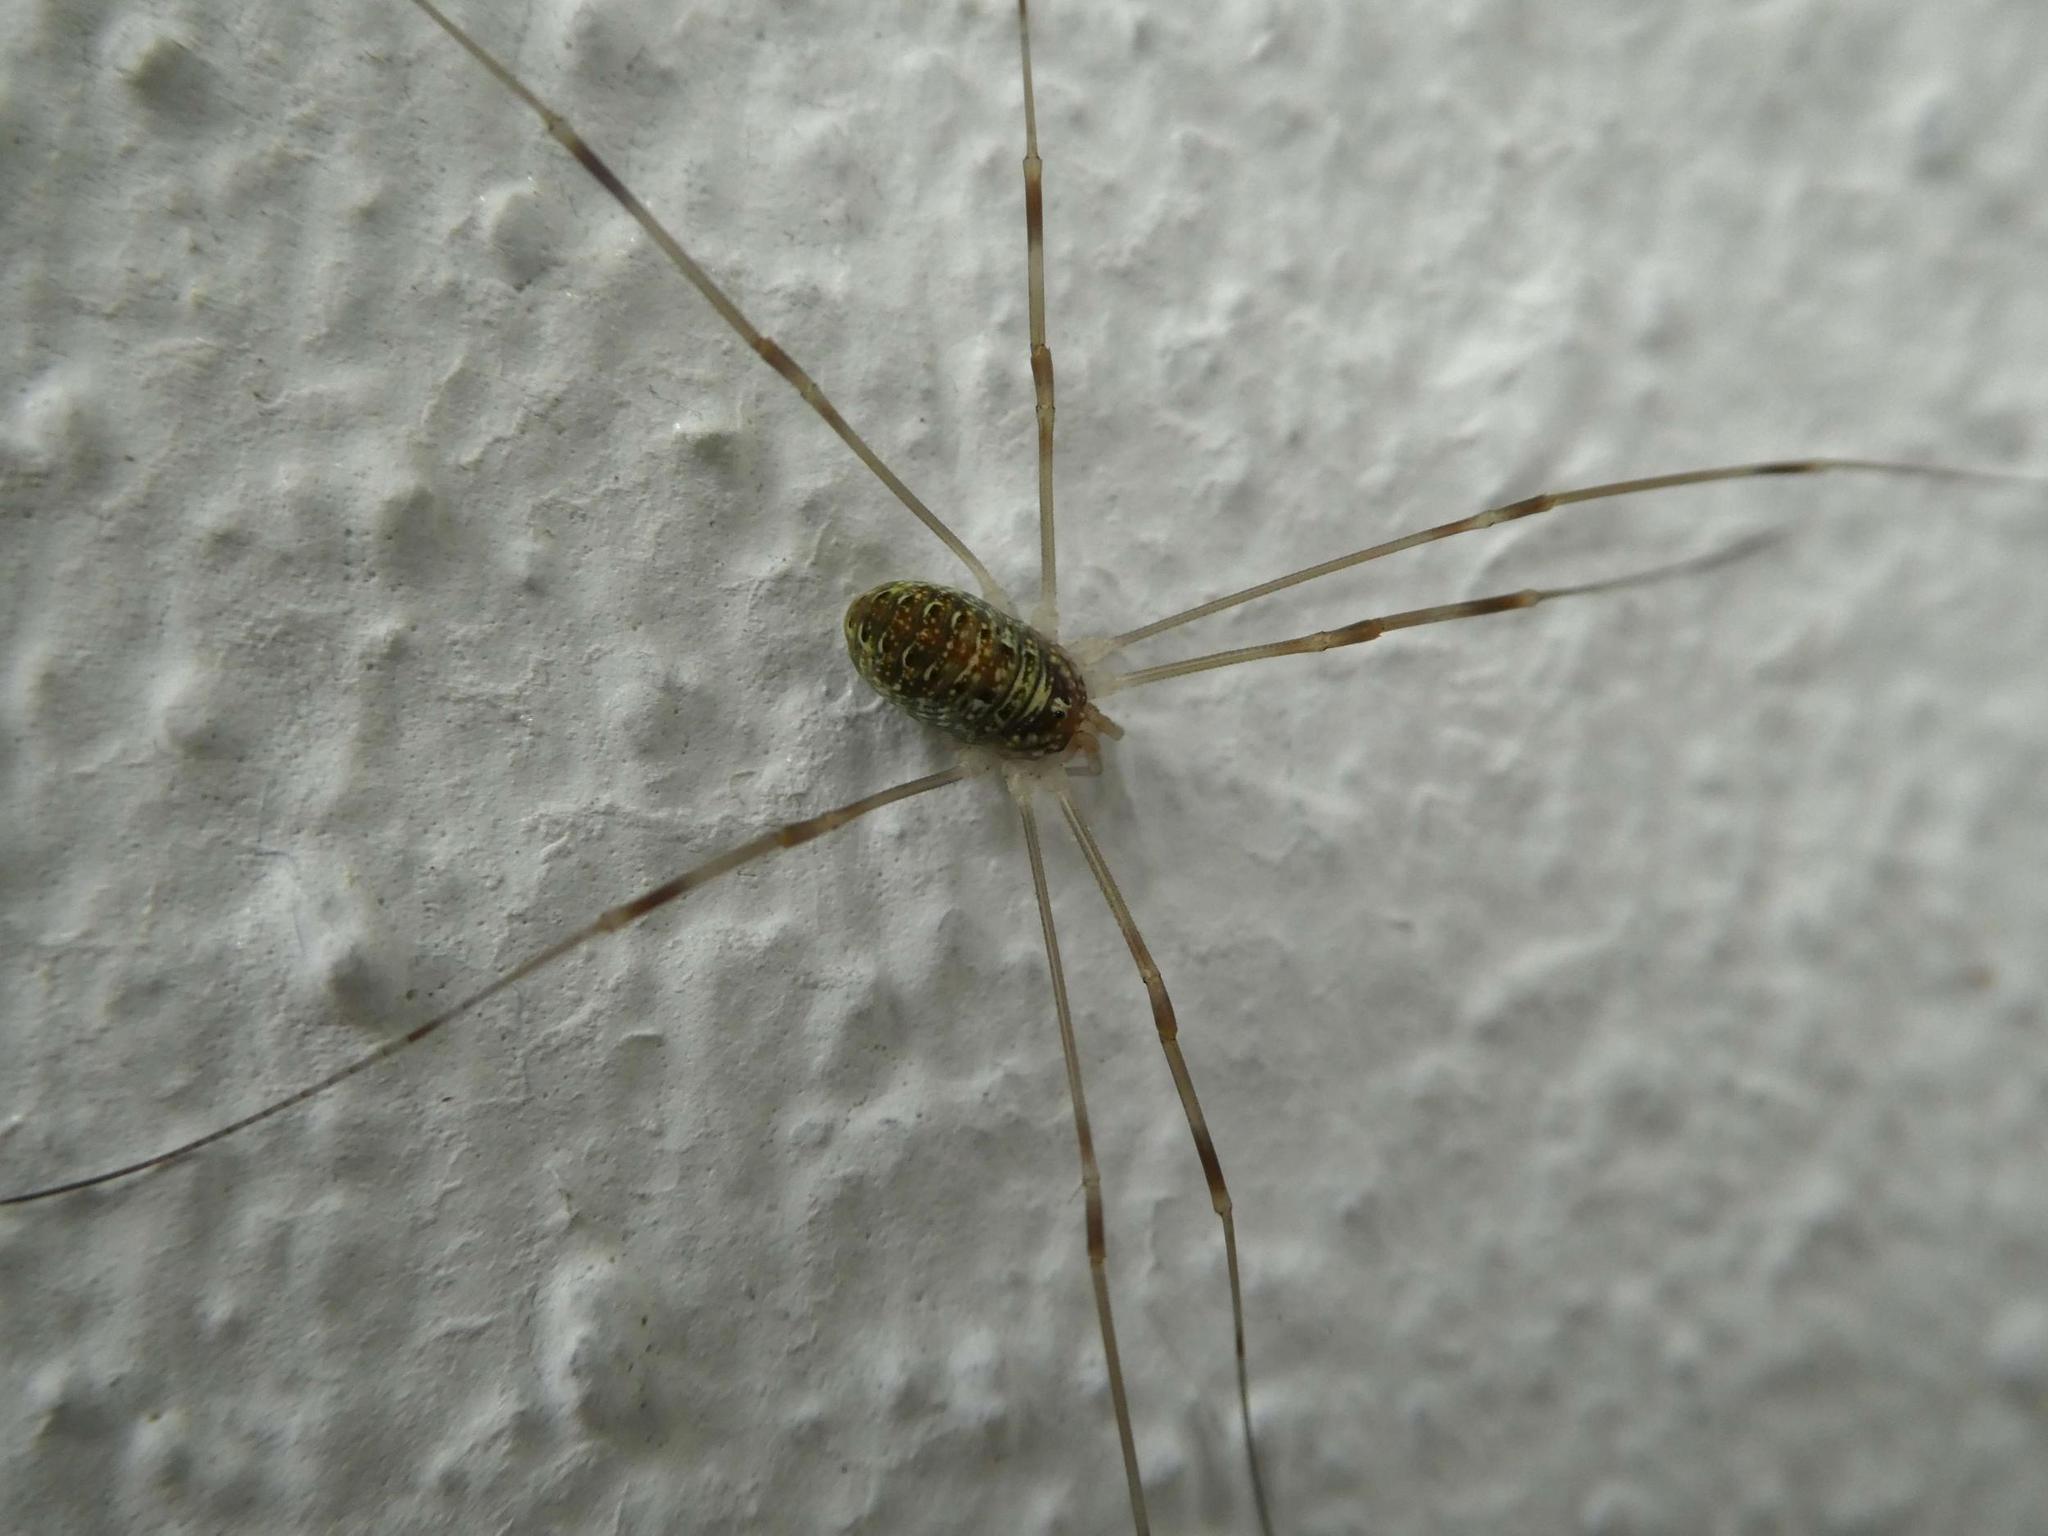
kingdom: Animalia
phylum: Arthropoda
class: Arachnida
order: Opiliones
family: Phalangiidae
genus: Opilio
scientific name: Opilio canestrinii
